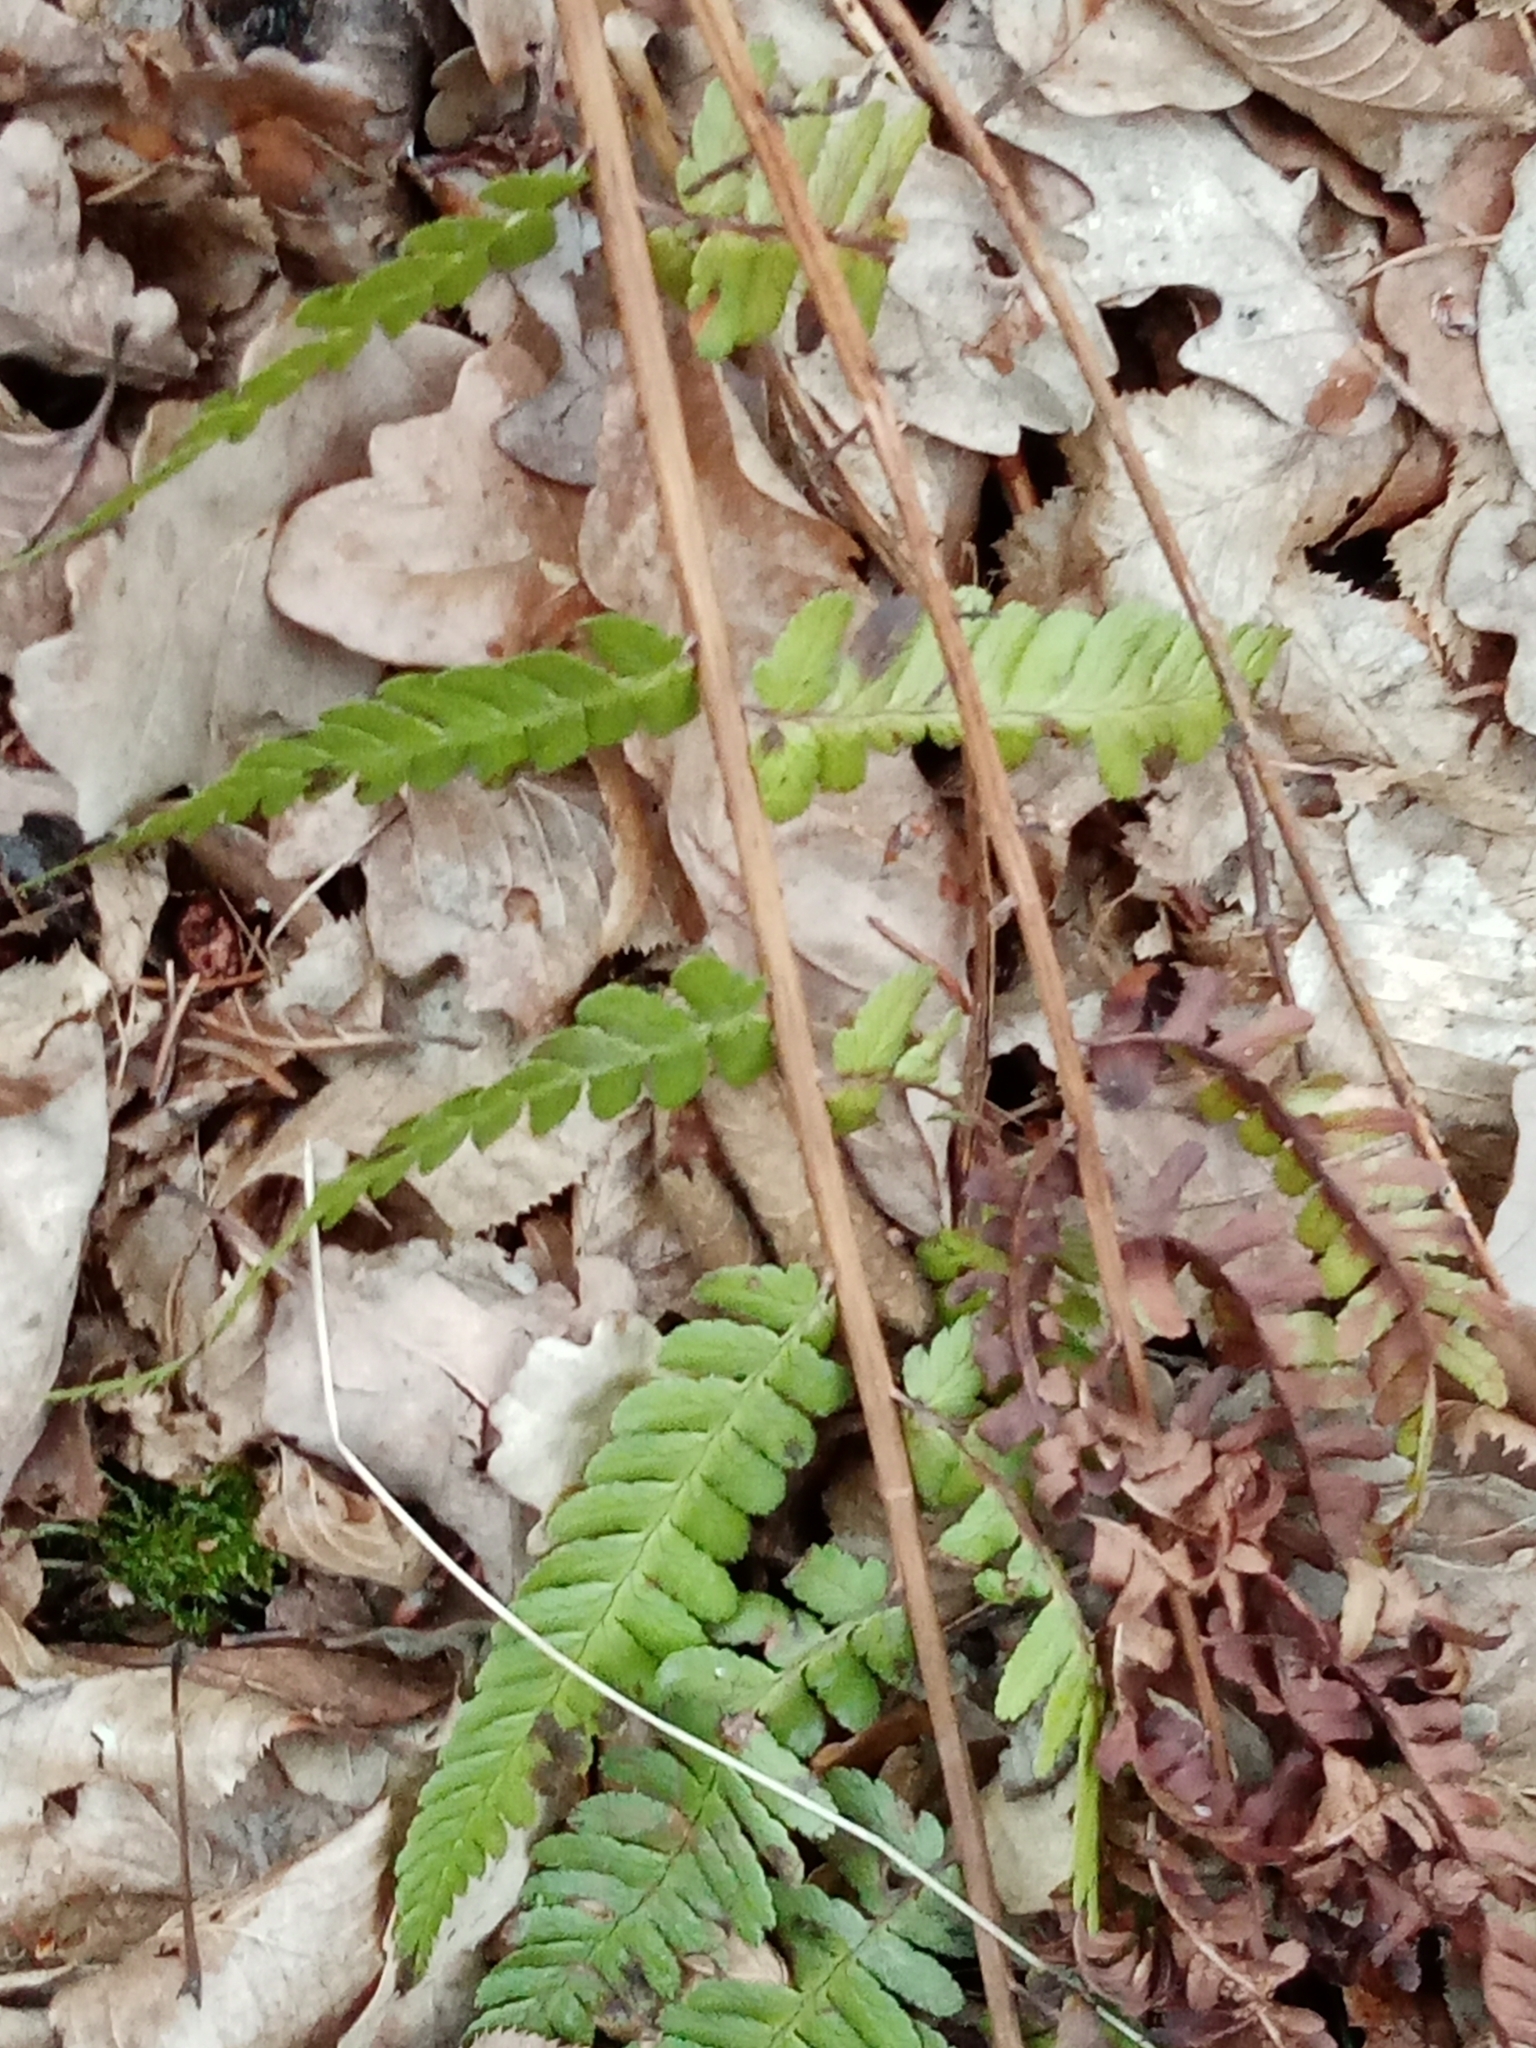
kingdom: Plantae
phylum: Tracheophyta
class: Polypodiopsida
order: Polypodiales
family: Dryopteridaceae
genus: Dryopteris
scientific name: Dryopteris filix-mas
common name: Male fern
